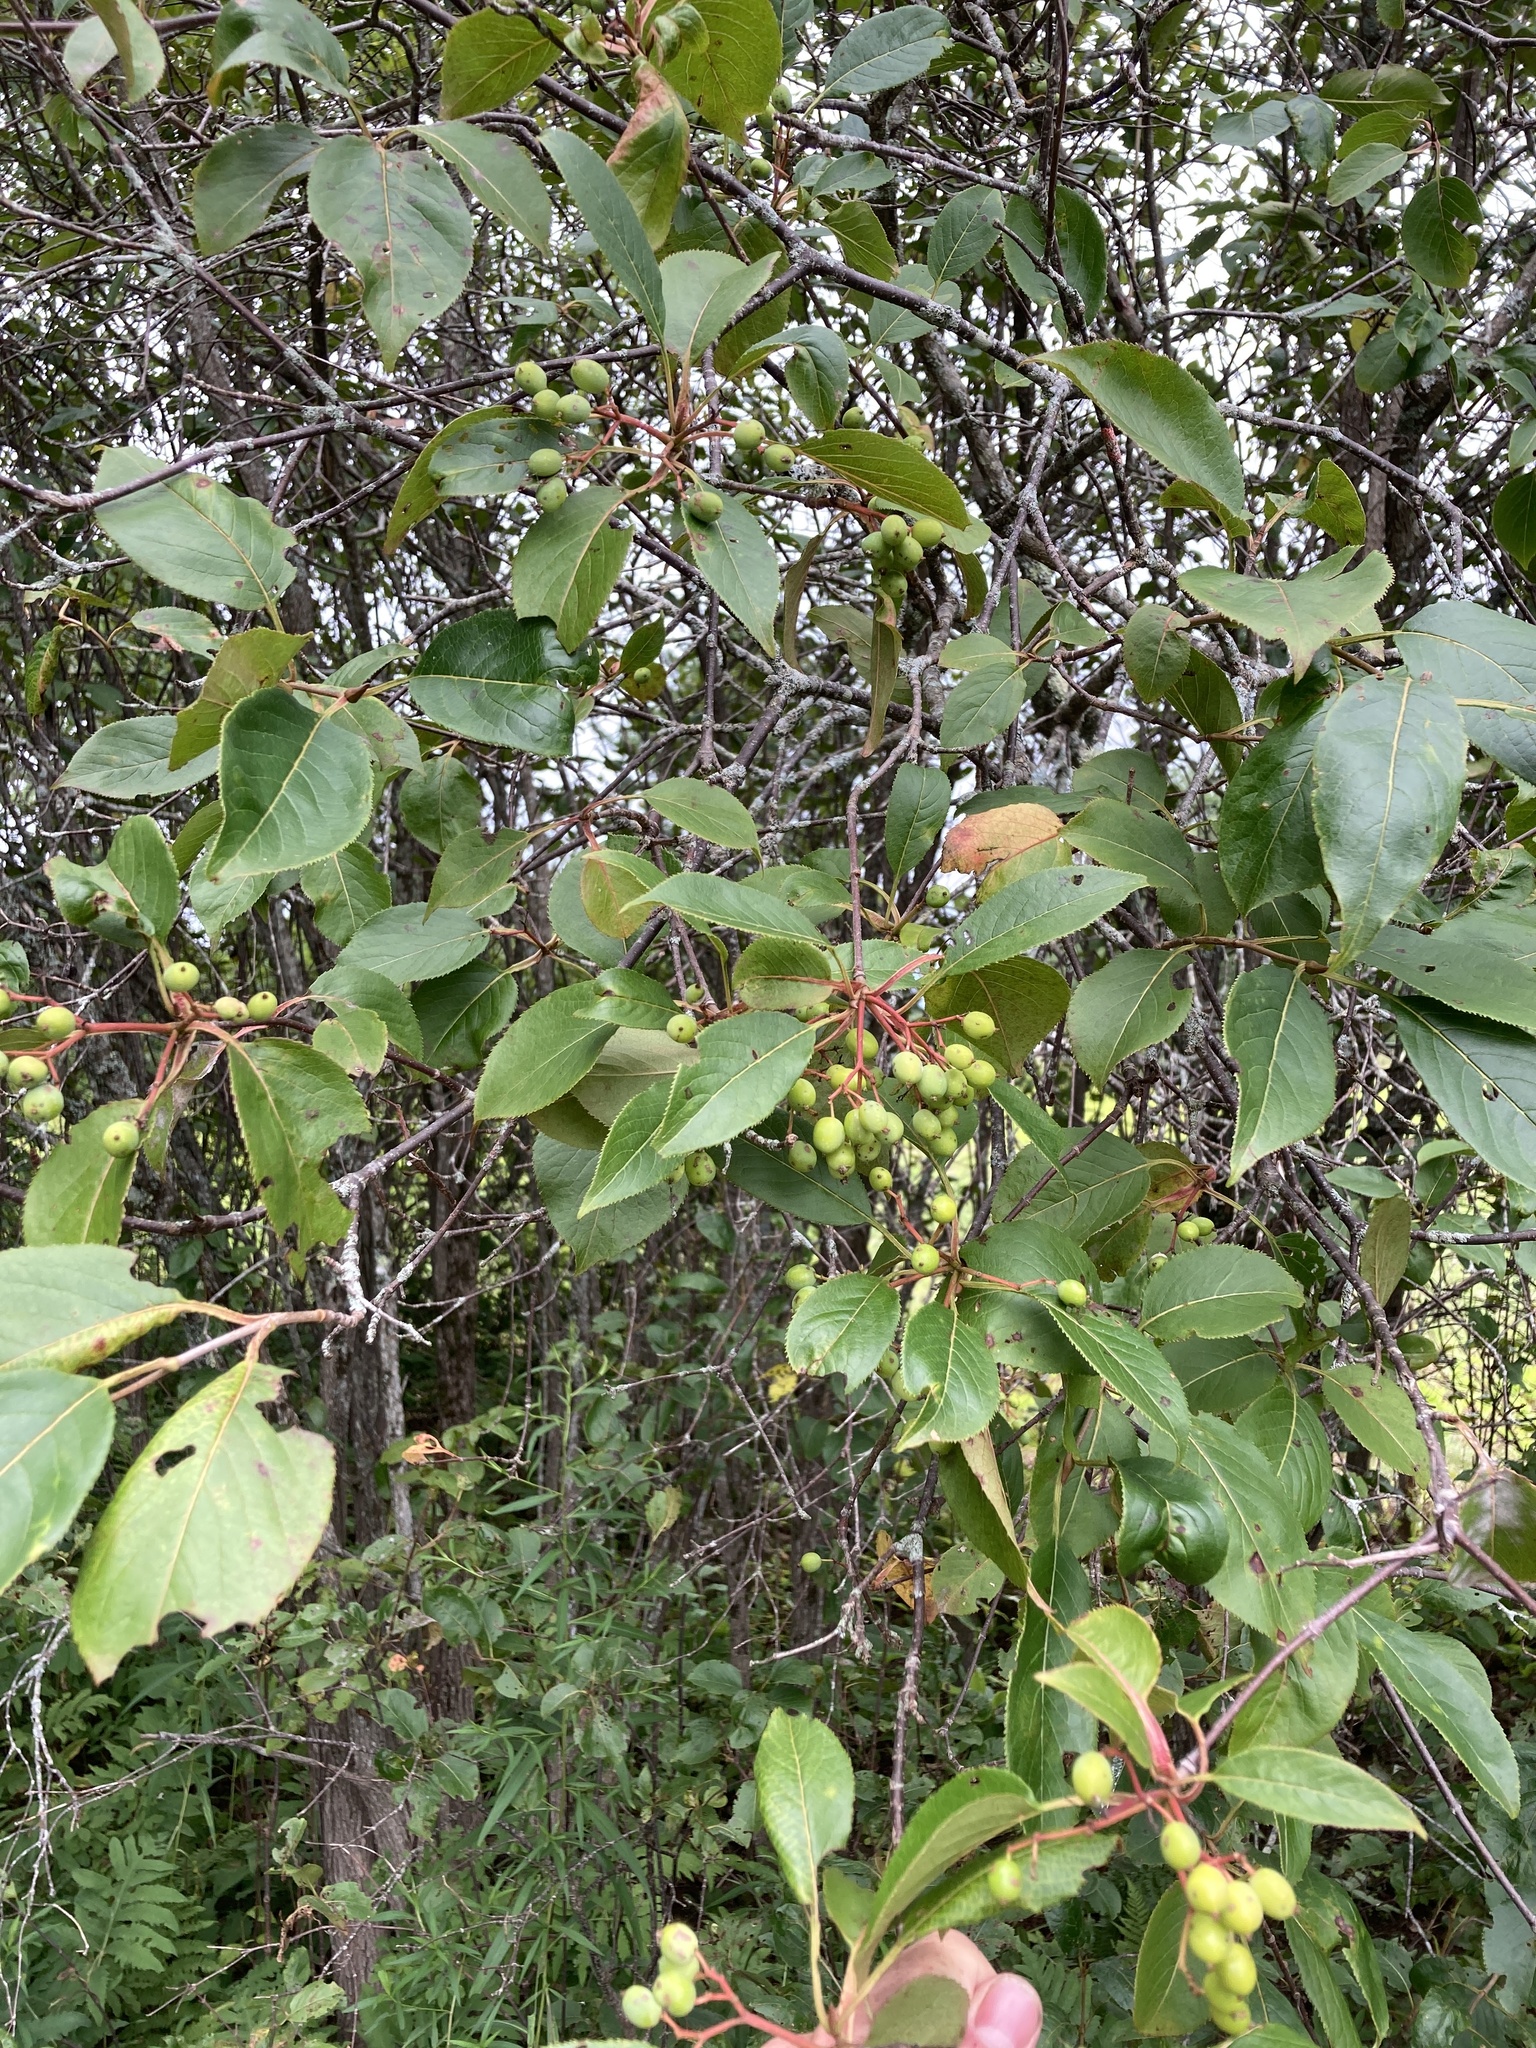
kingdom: Plantae
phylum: Tracheophyta
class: Magnoliopsida
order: Dipsacales
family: Viburnaceae
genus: Viburnum
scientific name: Viburnum lentago
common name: Black haw
